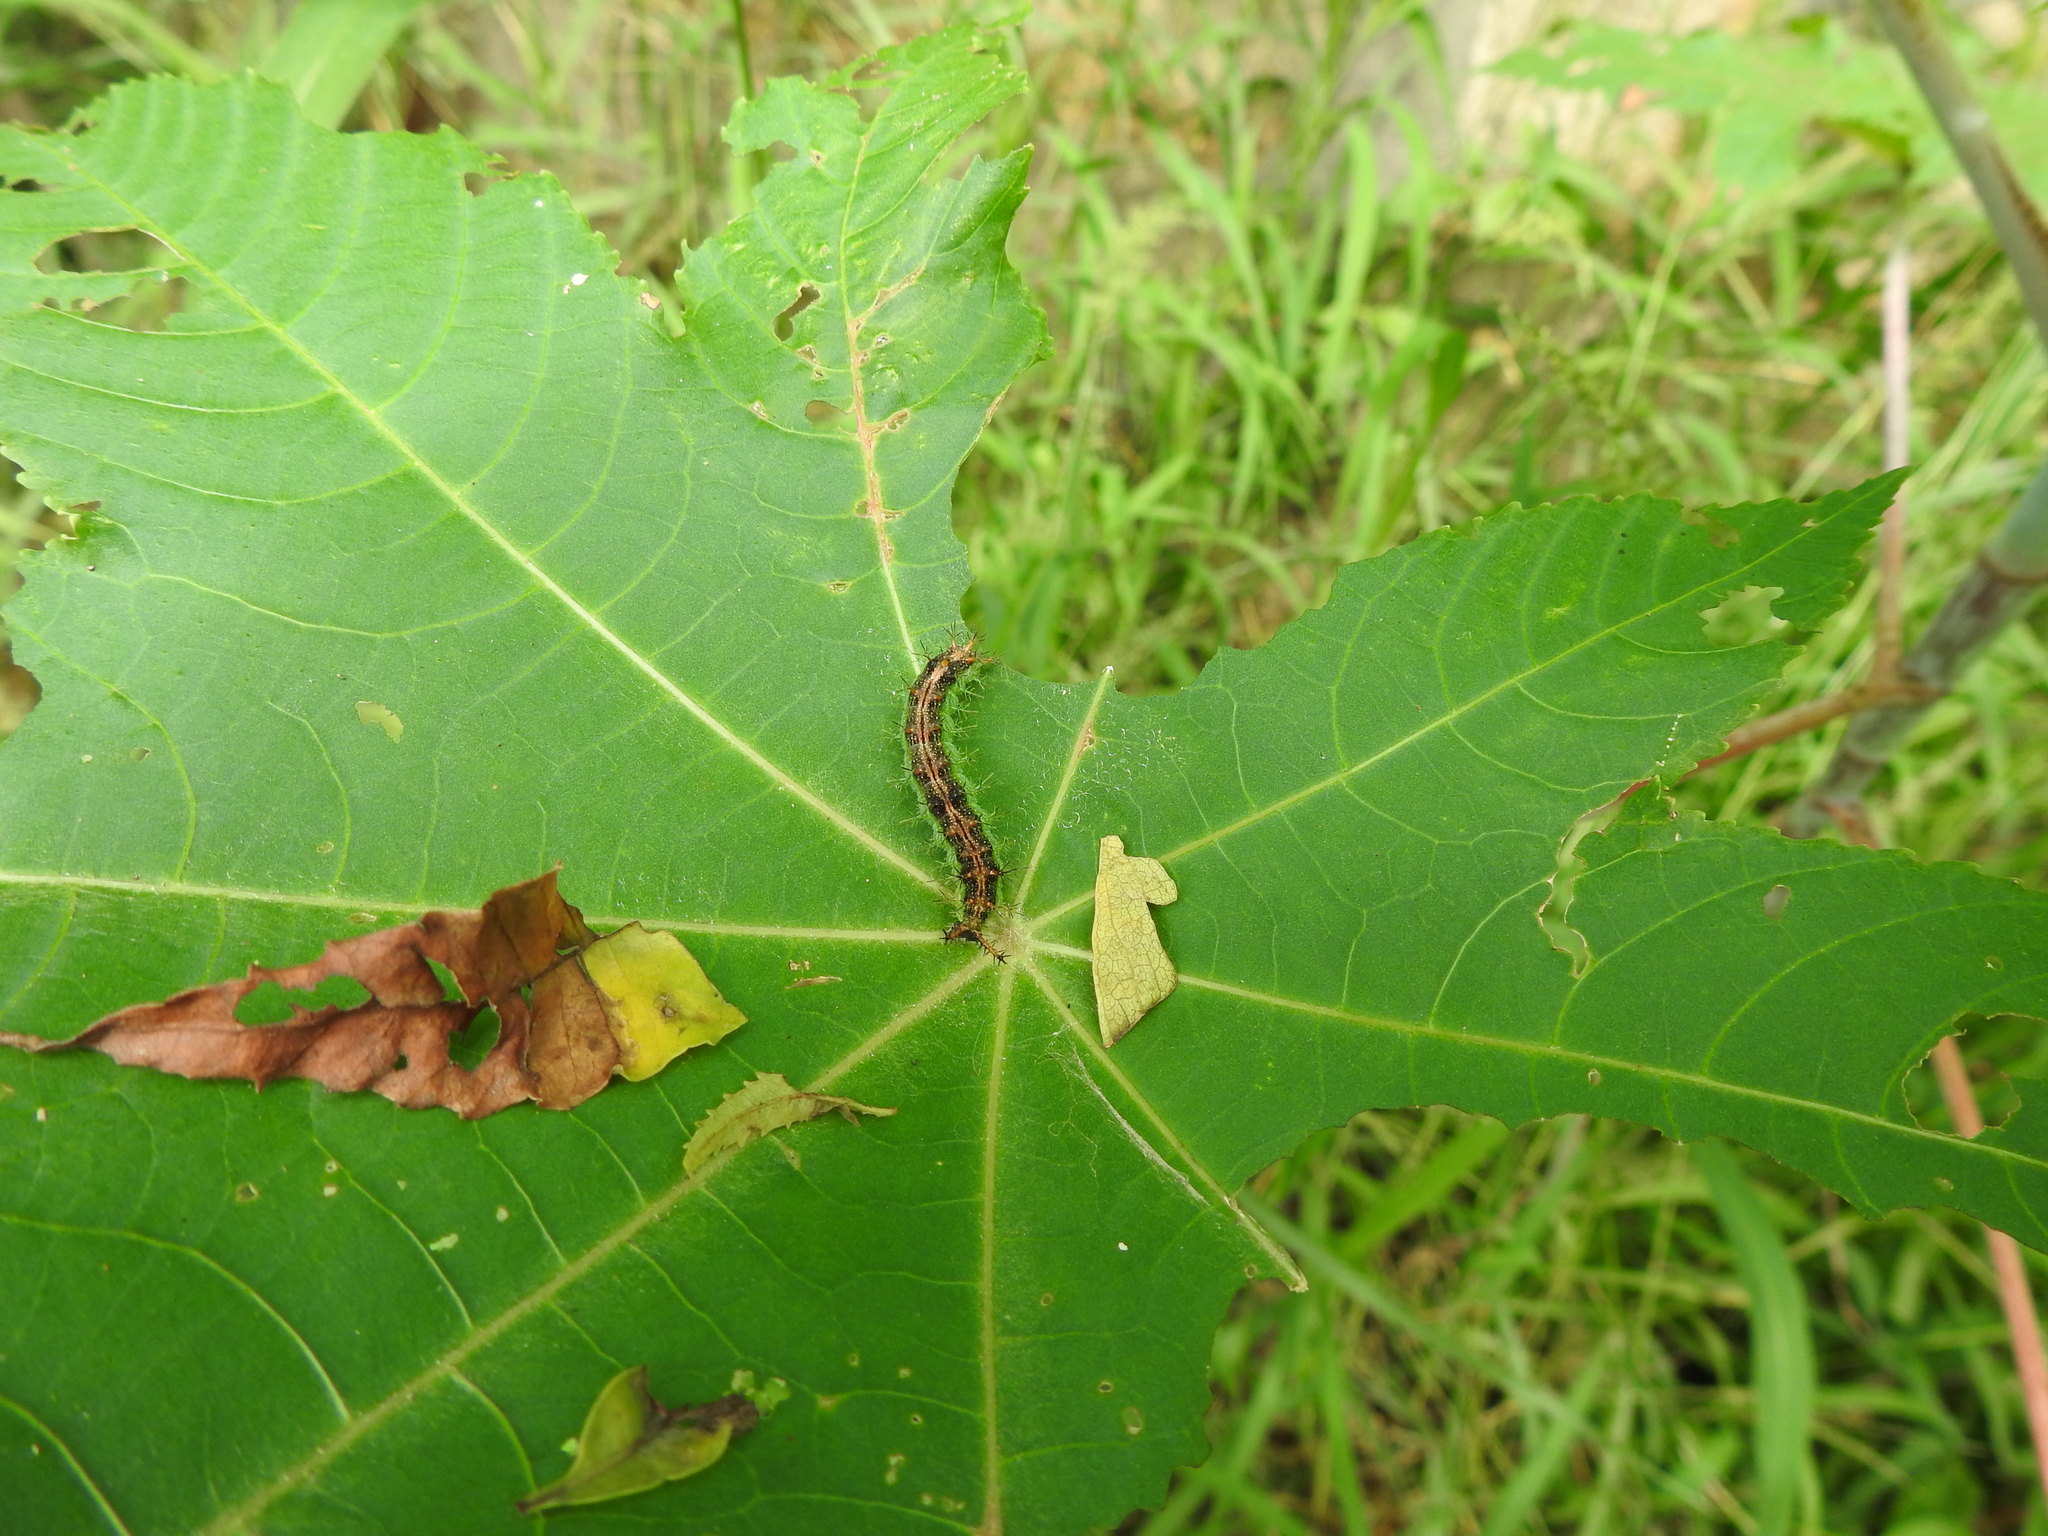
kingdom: Animalia
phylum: Arthropoda
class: Insecta
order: Lepidoptera
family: Nymphalidae
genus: Ariadne
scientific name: Ariadne merione
